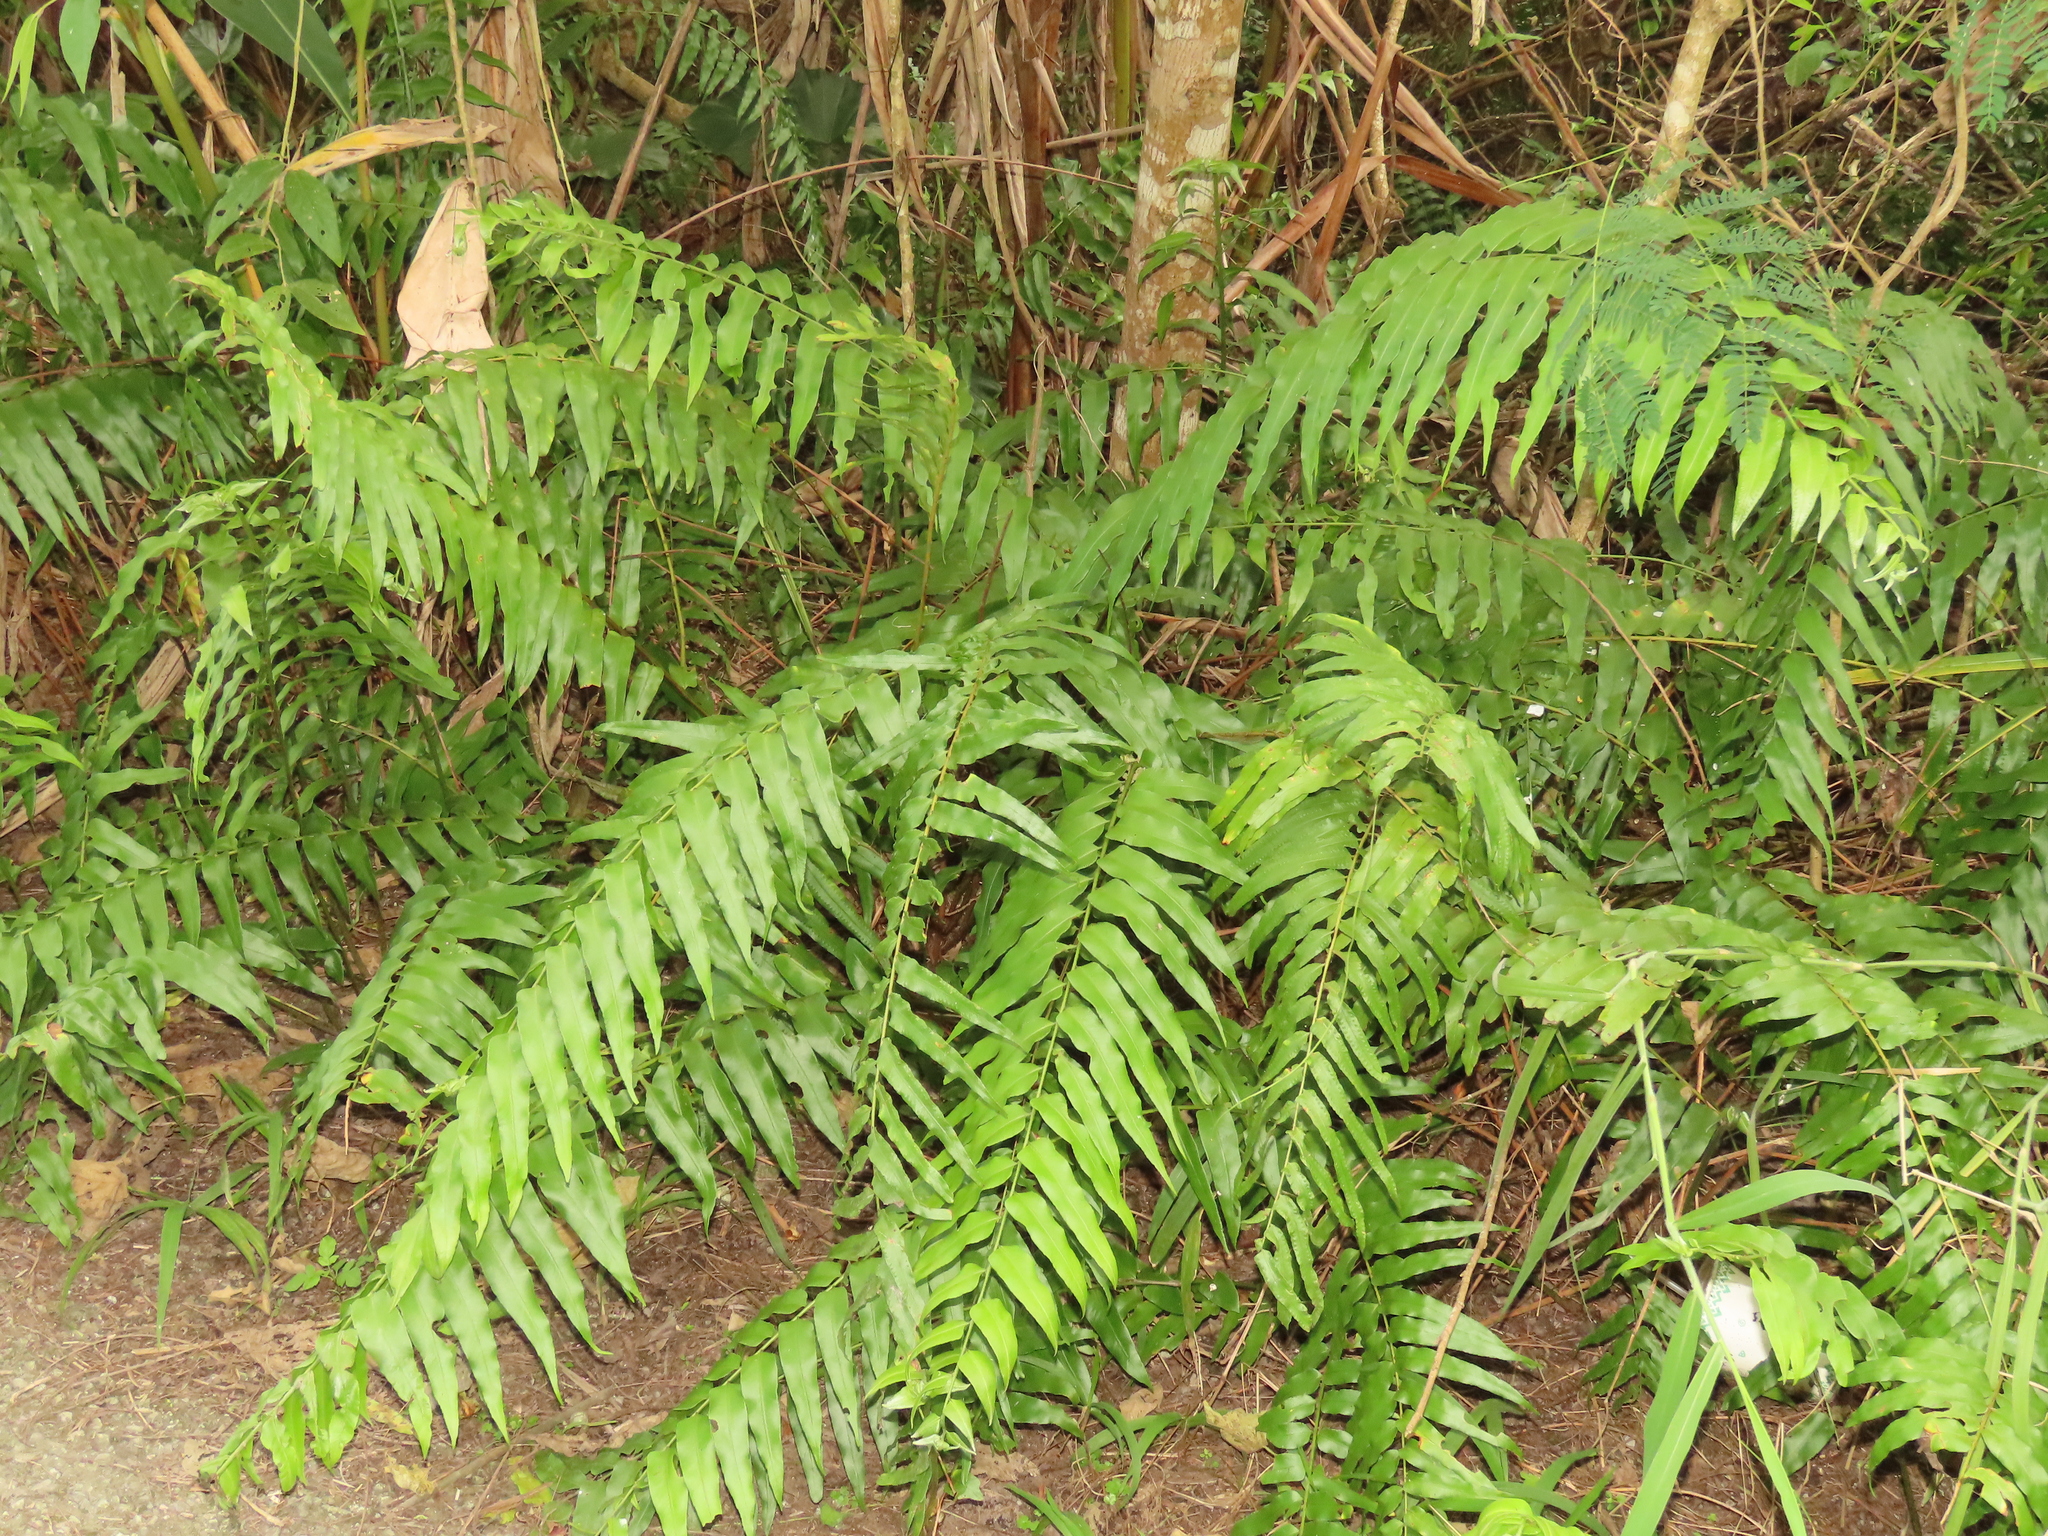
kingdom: Plantae
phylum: Tracheophyta
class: Polypodiopsida
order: Polypodiales
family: Nephrolepidaceae
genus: Nephrolepis
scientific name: Nephrolepis biserrata
